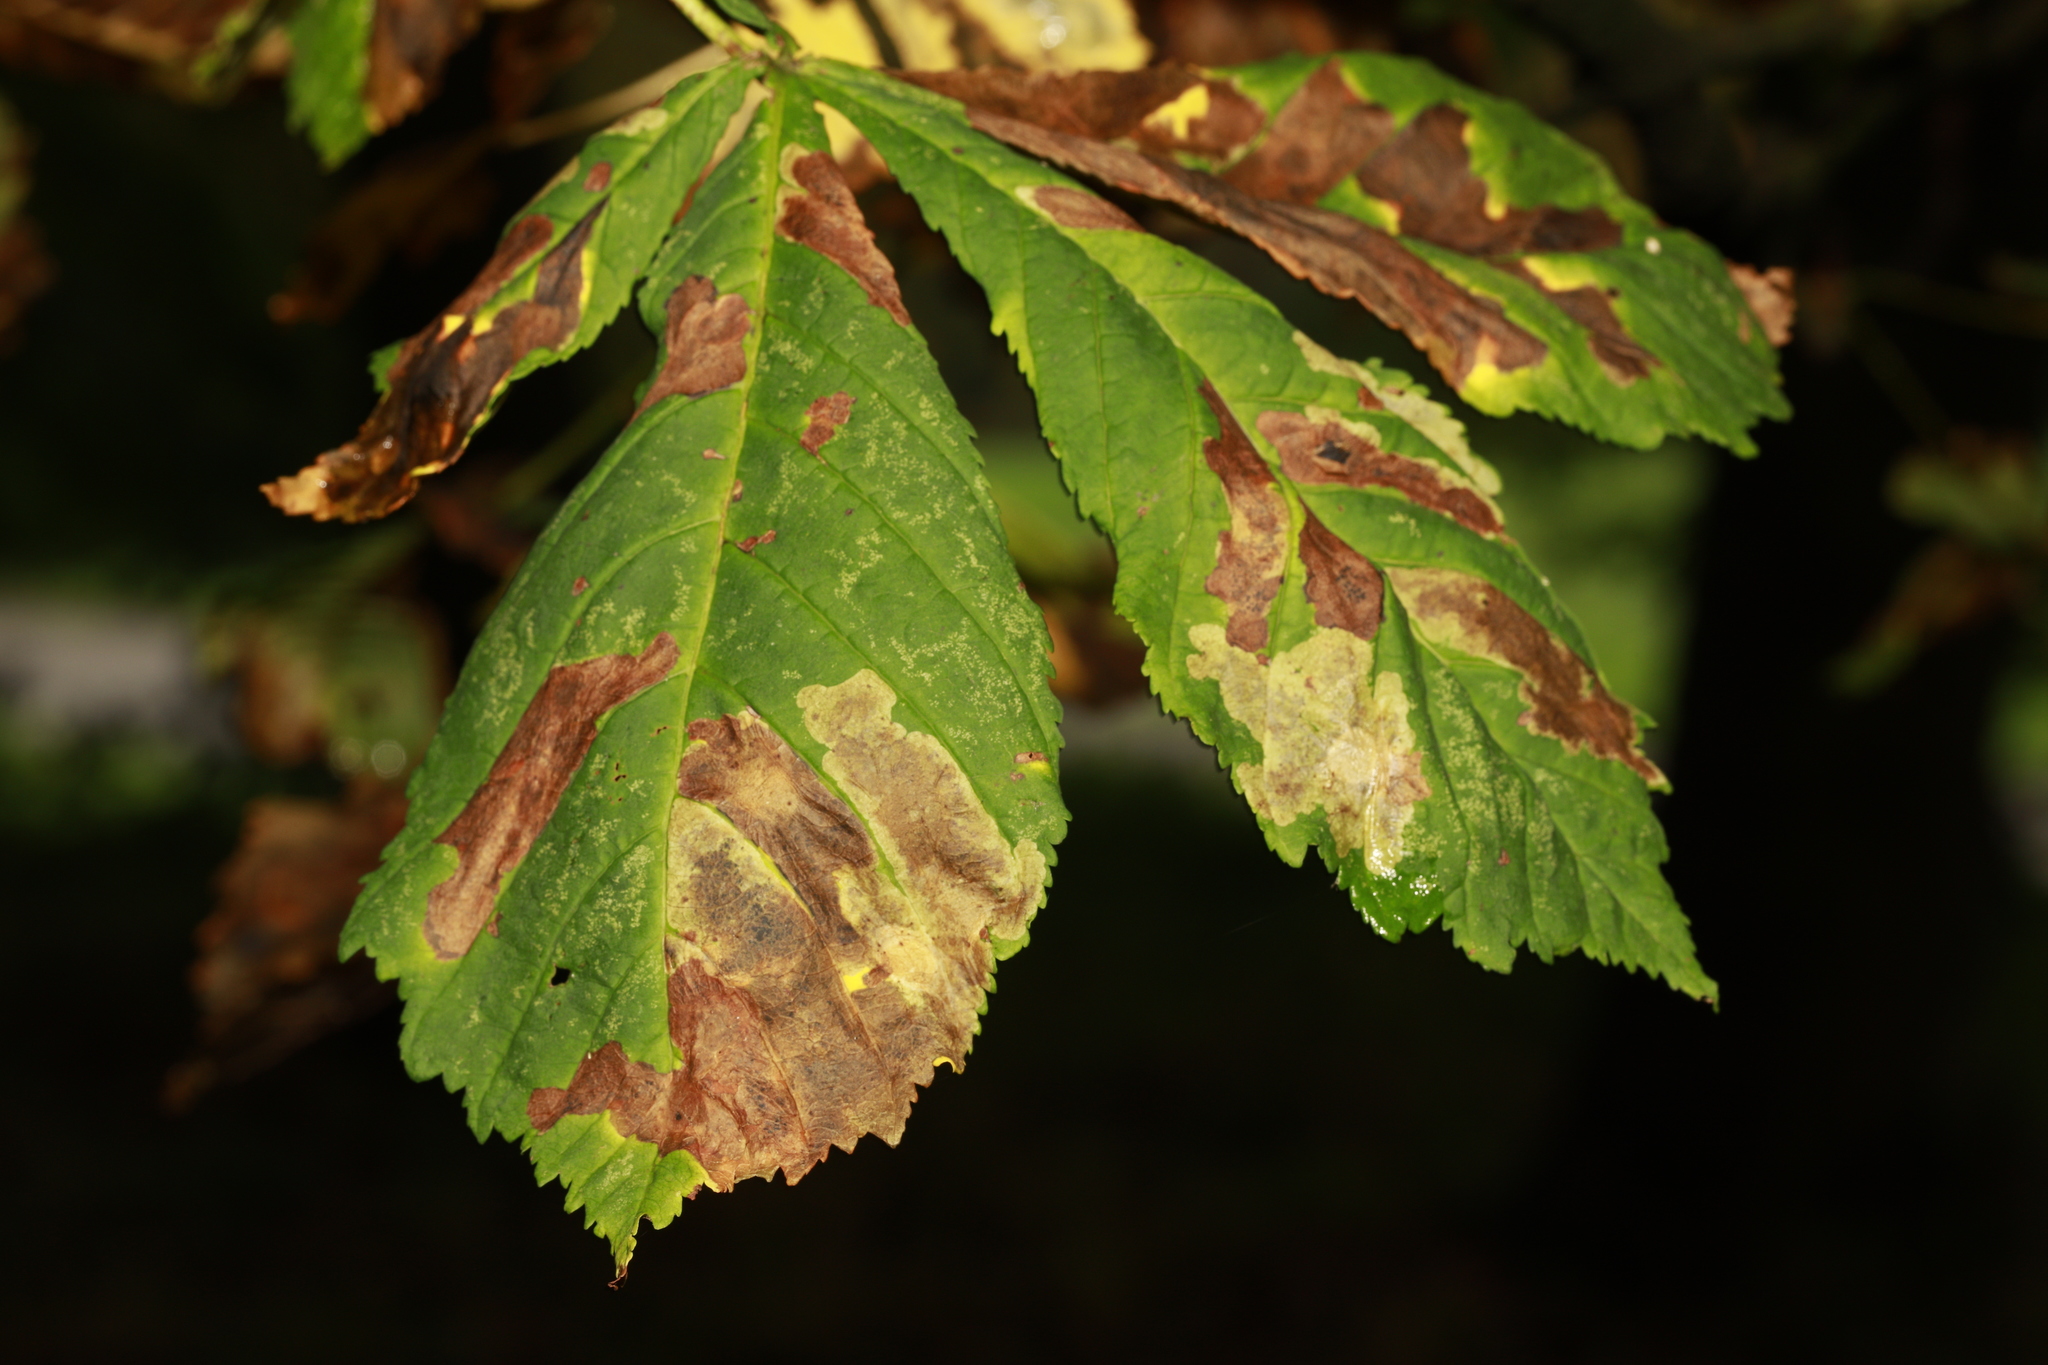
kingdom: Animalia
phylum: Arthropoda
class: Insecta
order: Lepidoptera
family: Gracillariidae
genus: Cameraria
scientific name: Cameraria ohridella
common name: Horse-chestnut leaf-miner
